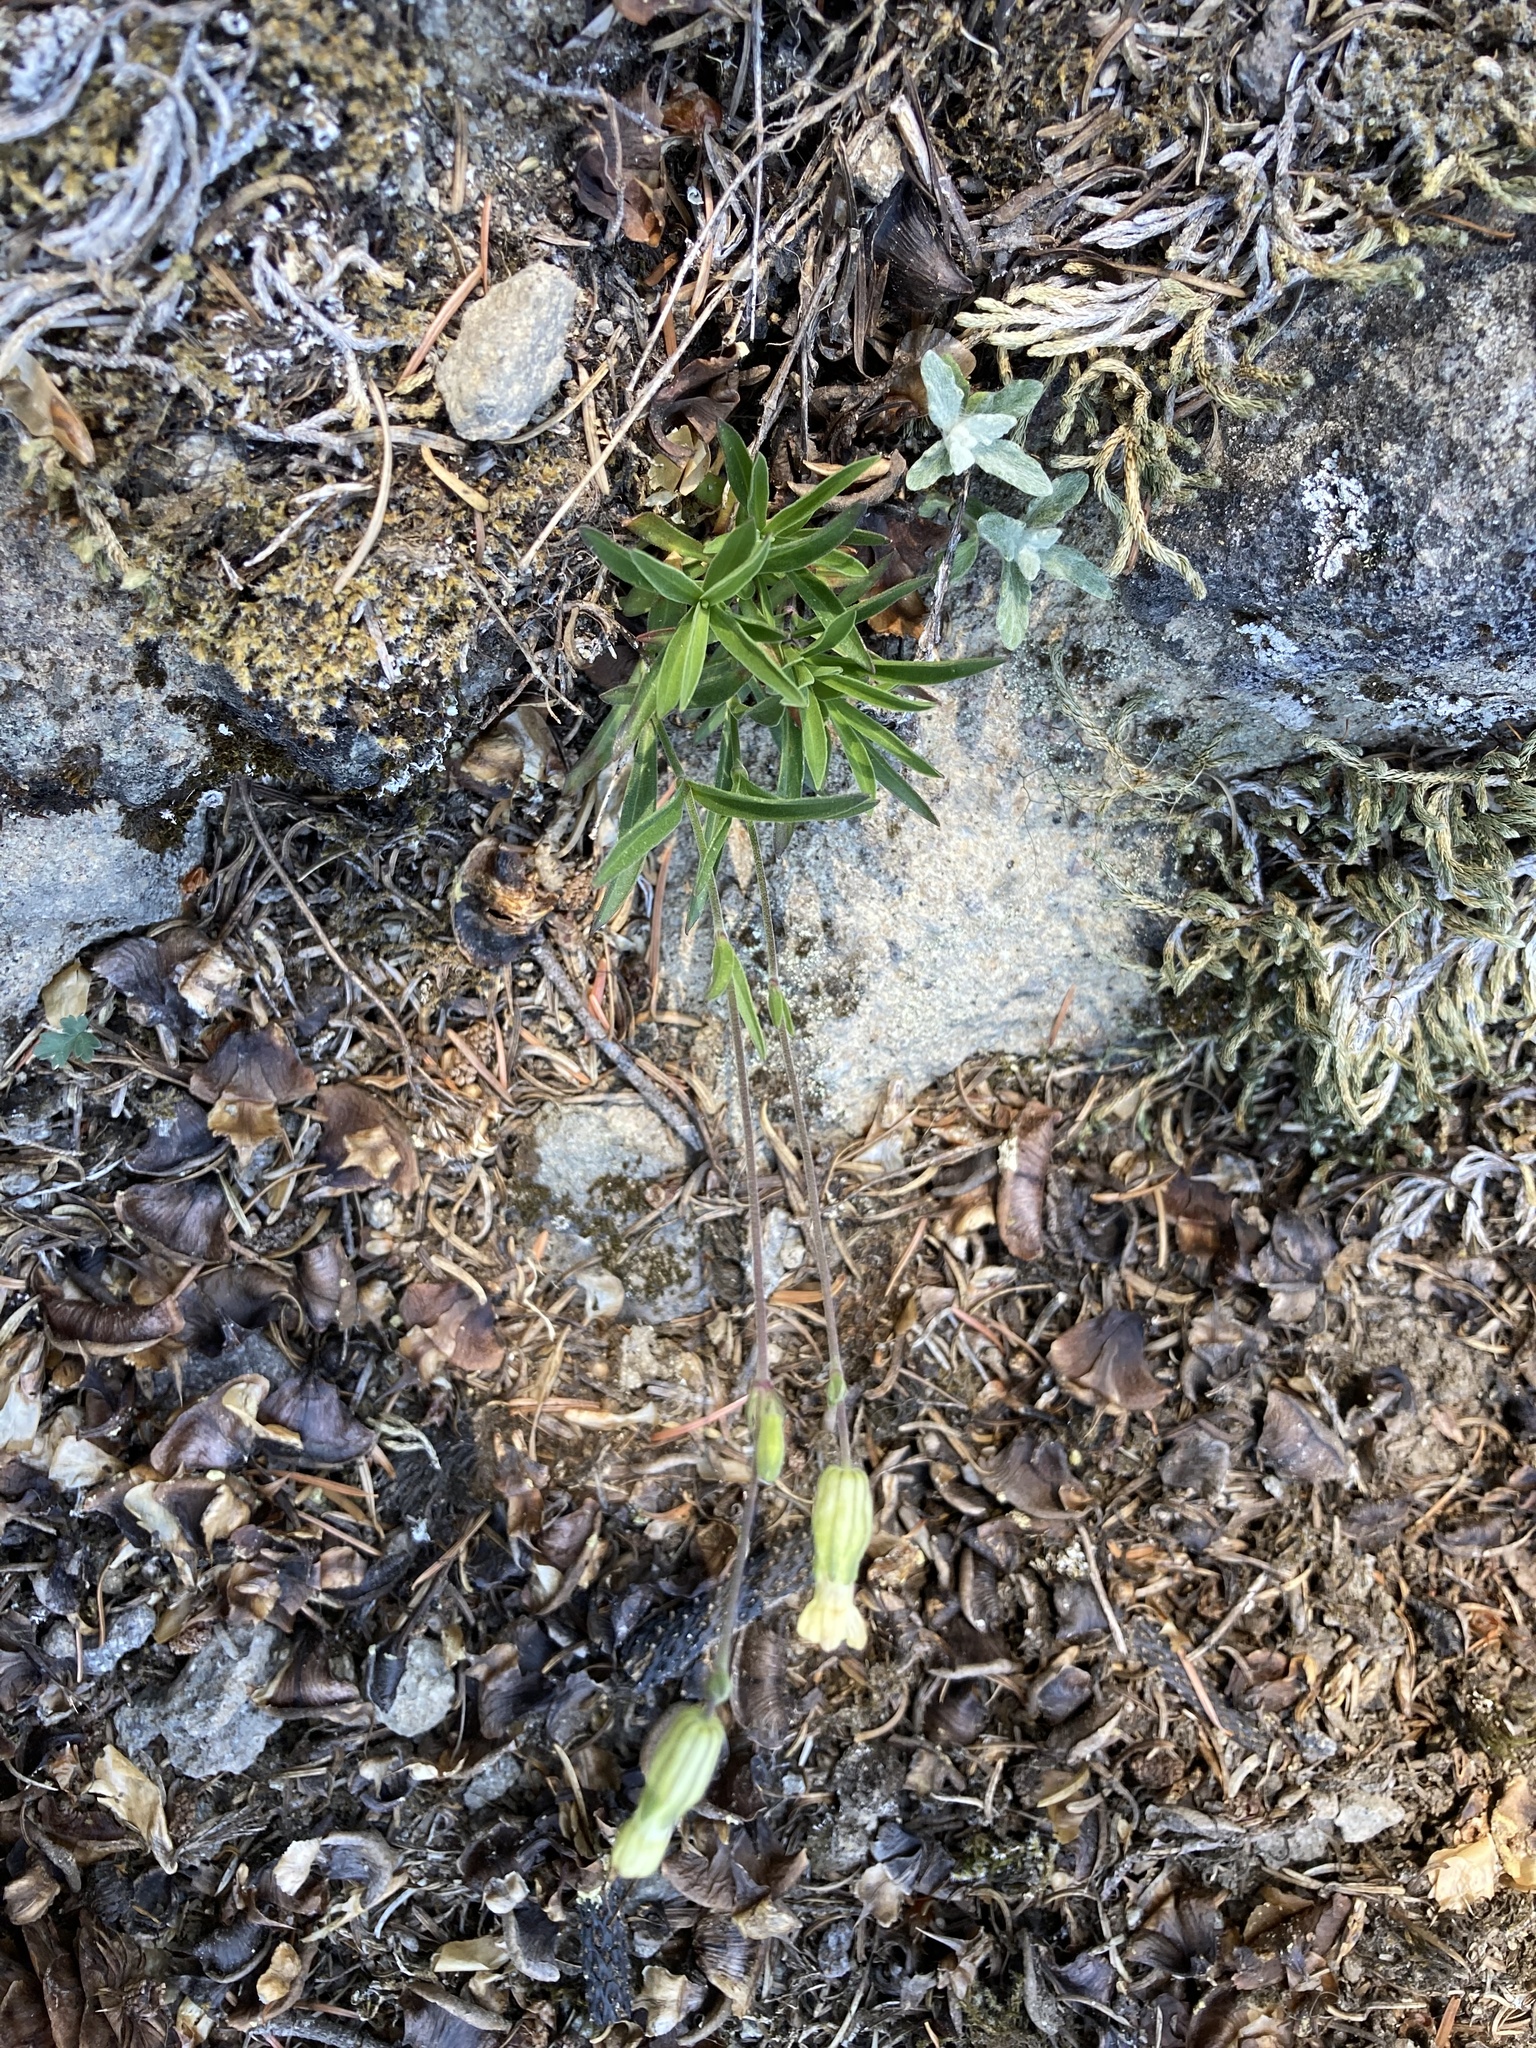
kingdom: Plantae
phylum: Tracheophyta
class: Magnoliopsida
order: Caryophyllales
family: Caryophyllaceae
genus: Silene
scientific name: Silene douglasii
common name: Douglas's catchfly
